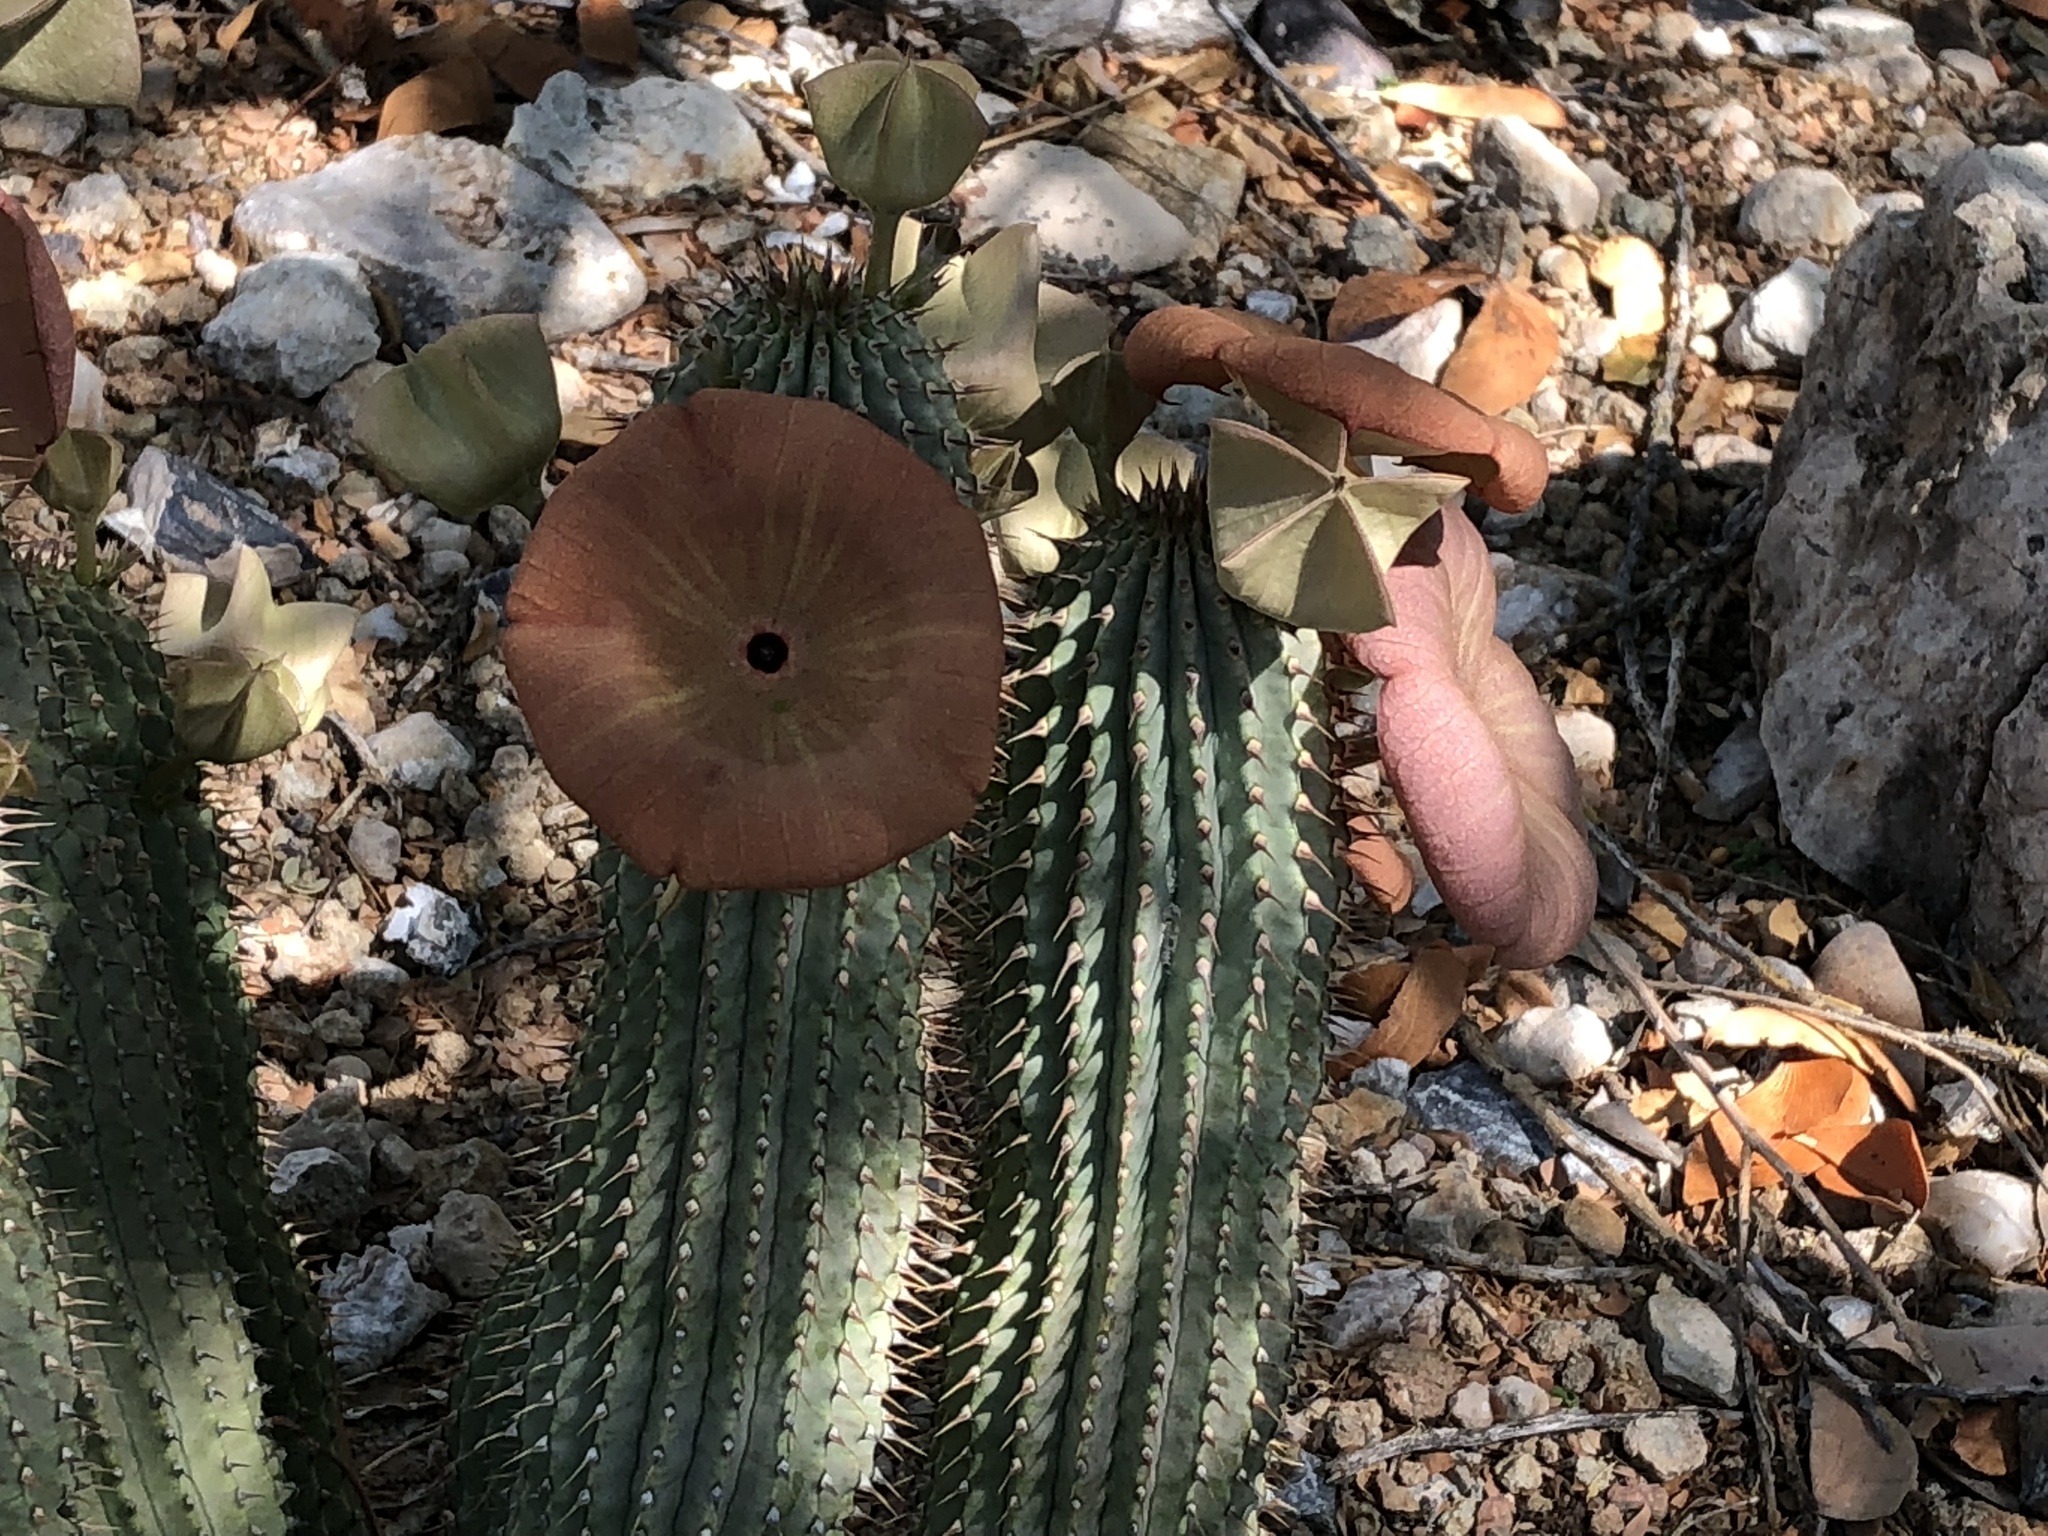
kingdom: Plantae
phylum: Tracheophyta
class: Magnoliopsida
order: Gentianales
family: Apocynaceae
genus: Ceropegia
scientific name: Ceropegia currorii
